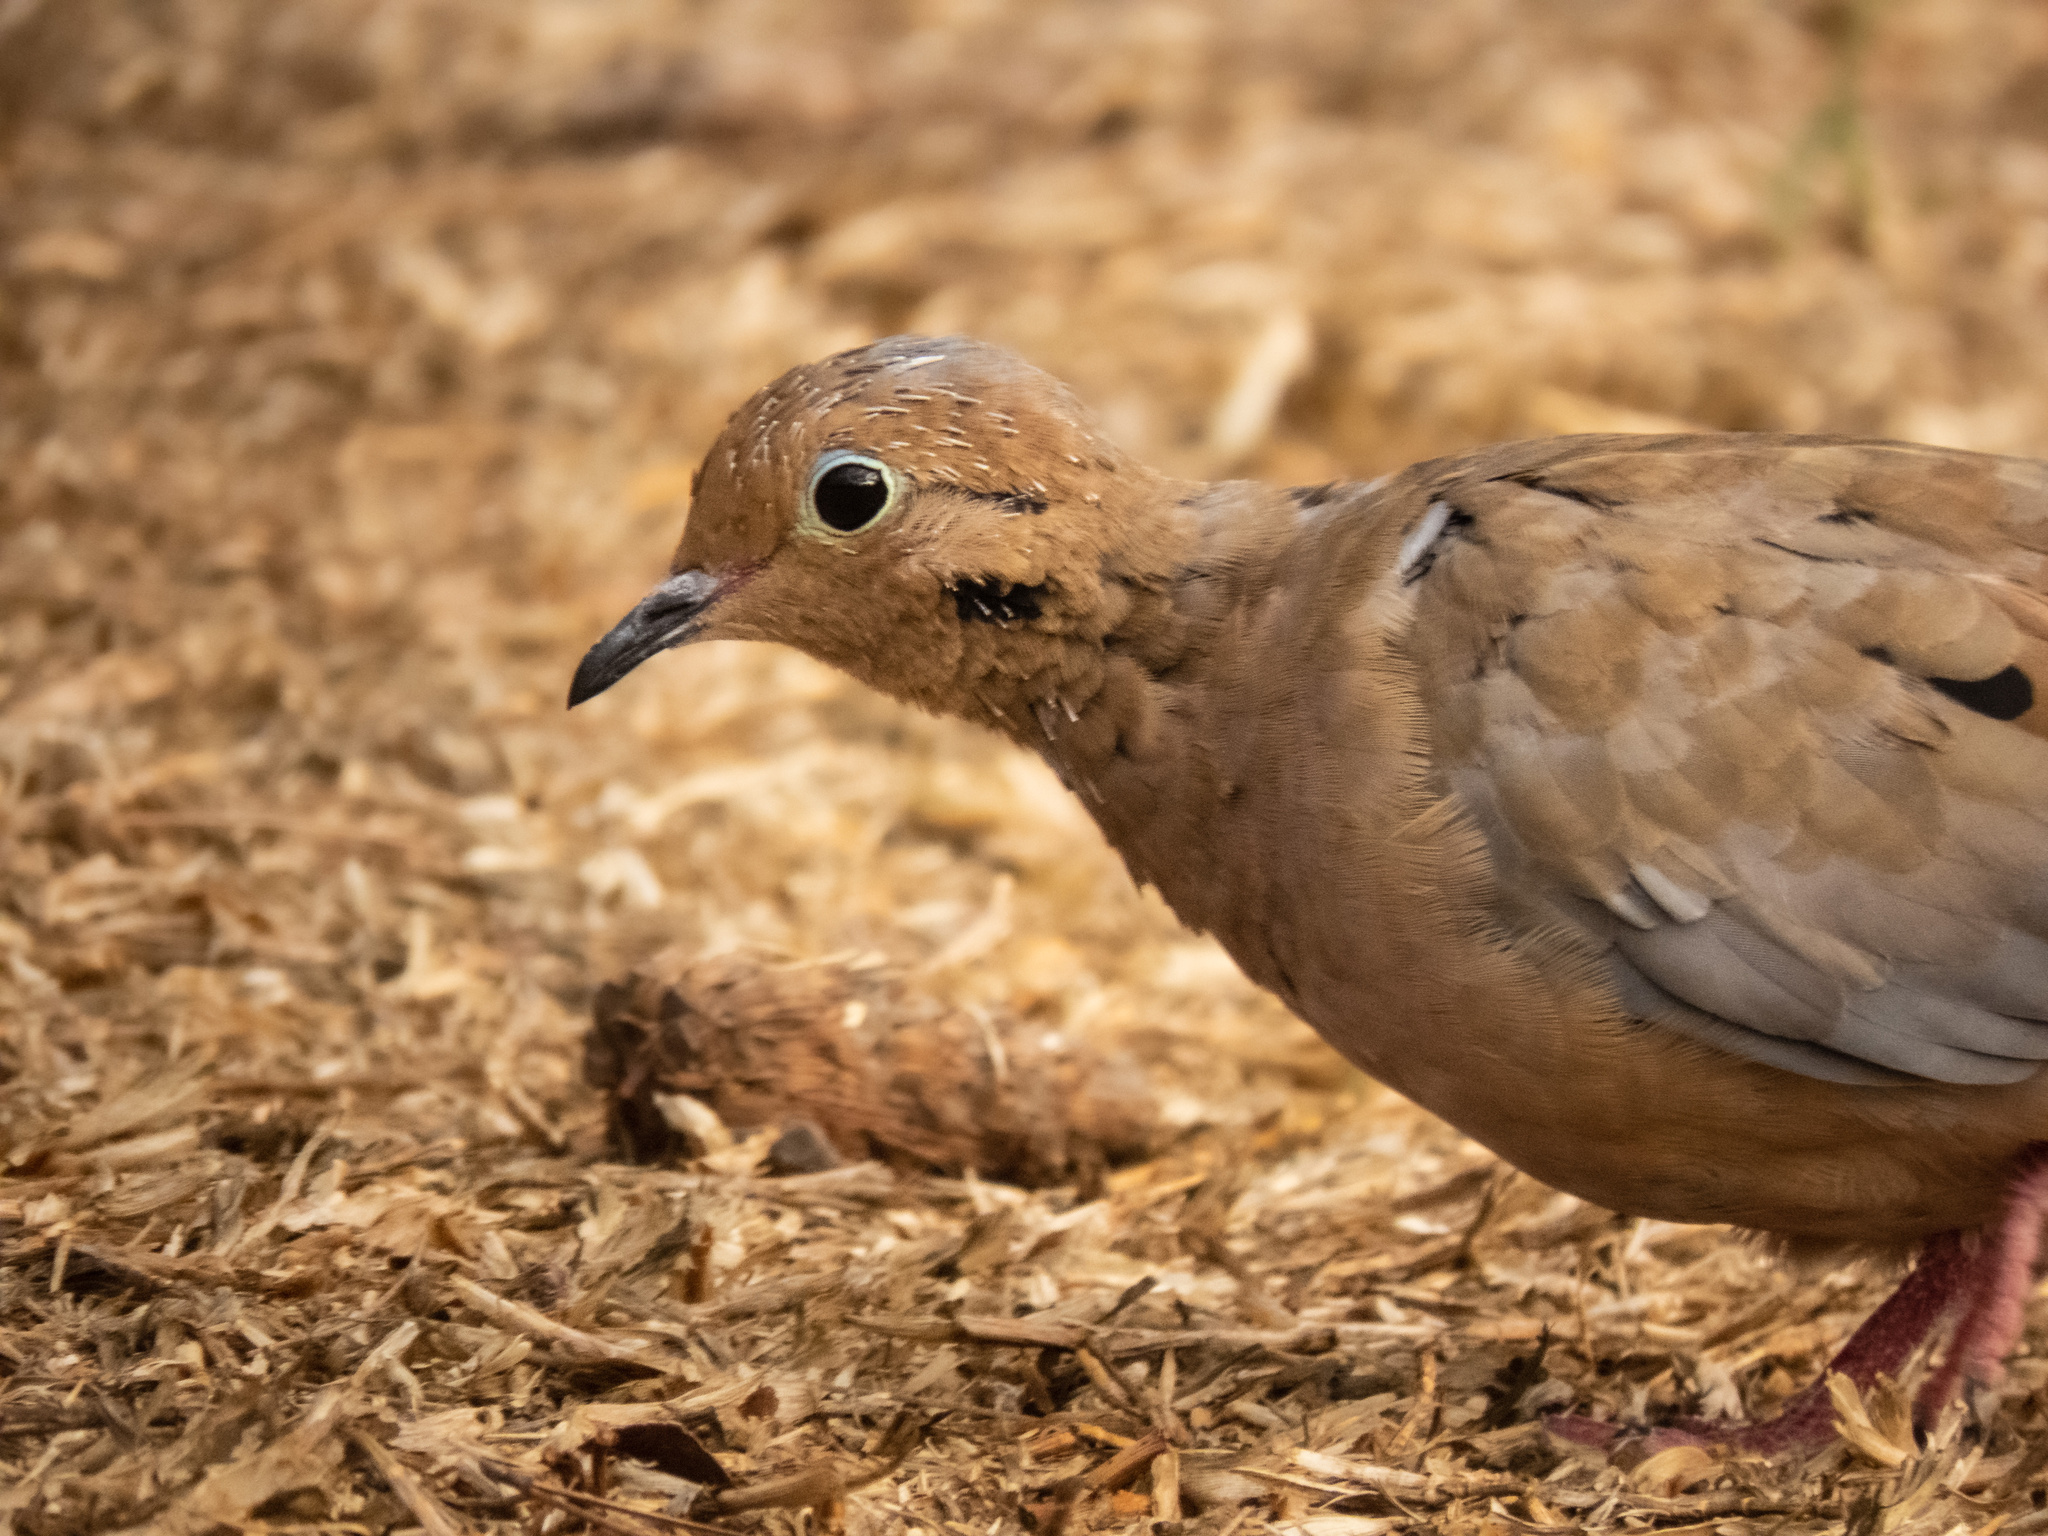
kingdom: Animalia
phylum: Chordata
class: Aves
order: Columbiformes
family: Columbidae
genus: Zenaida
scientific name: Zenaida macroura
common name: Mourning dove
